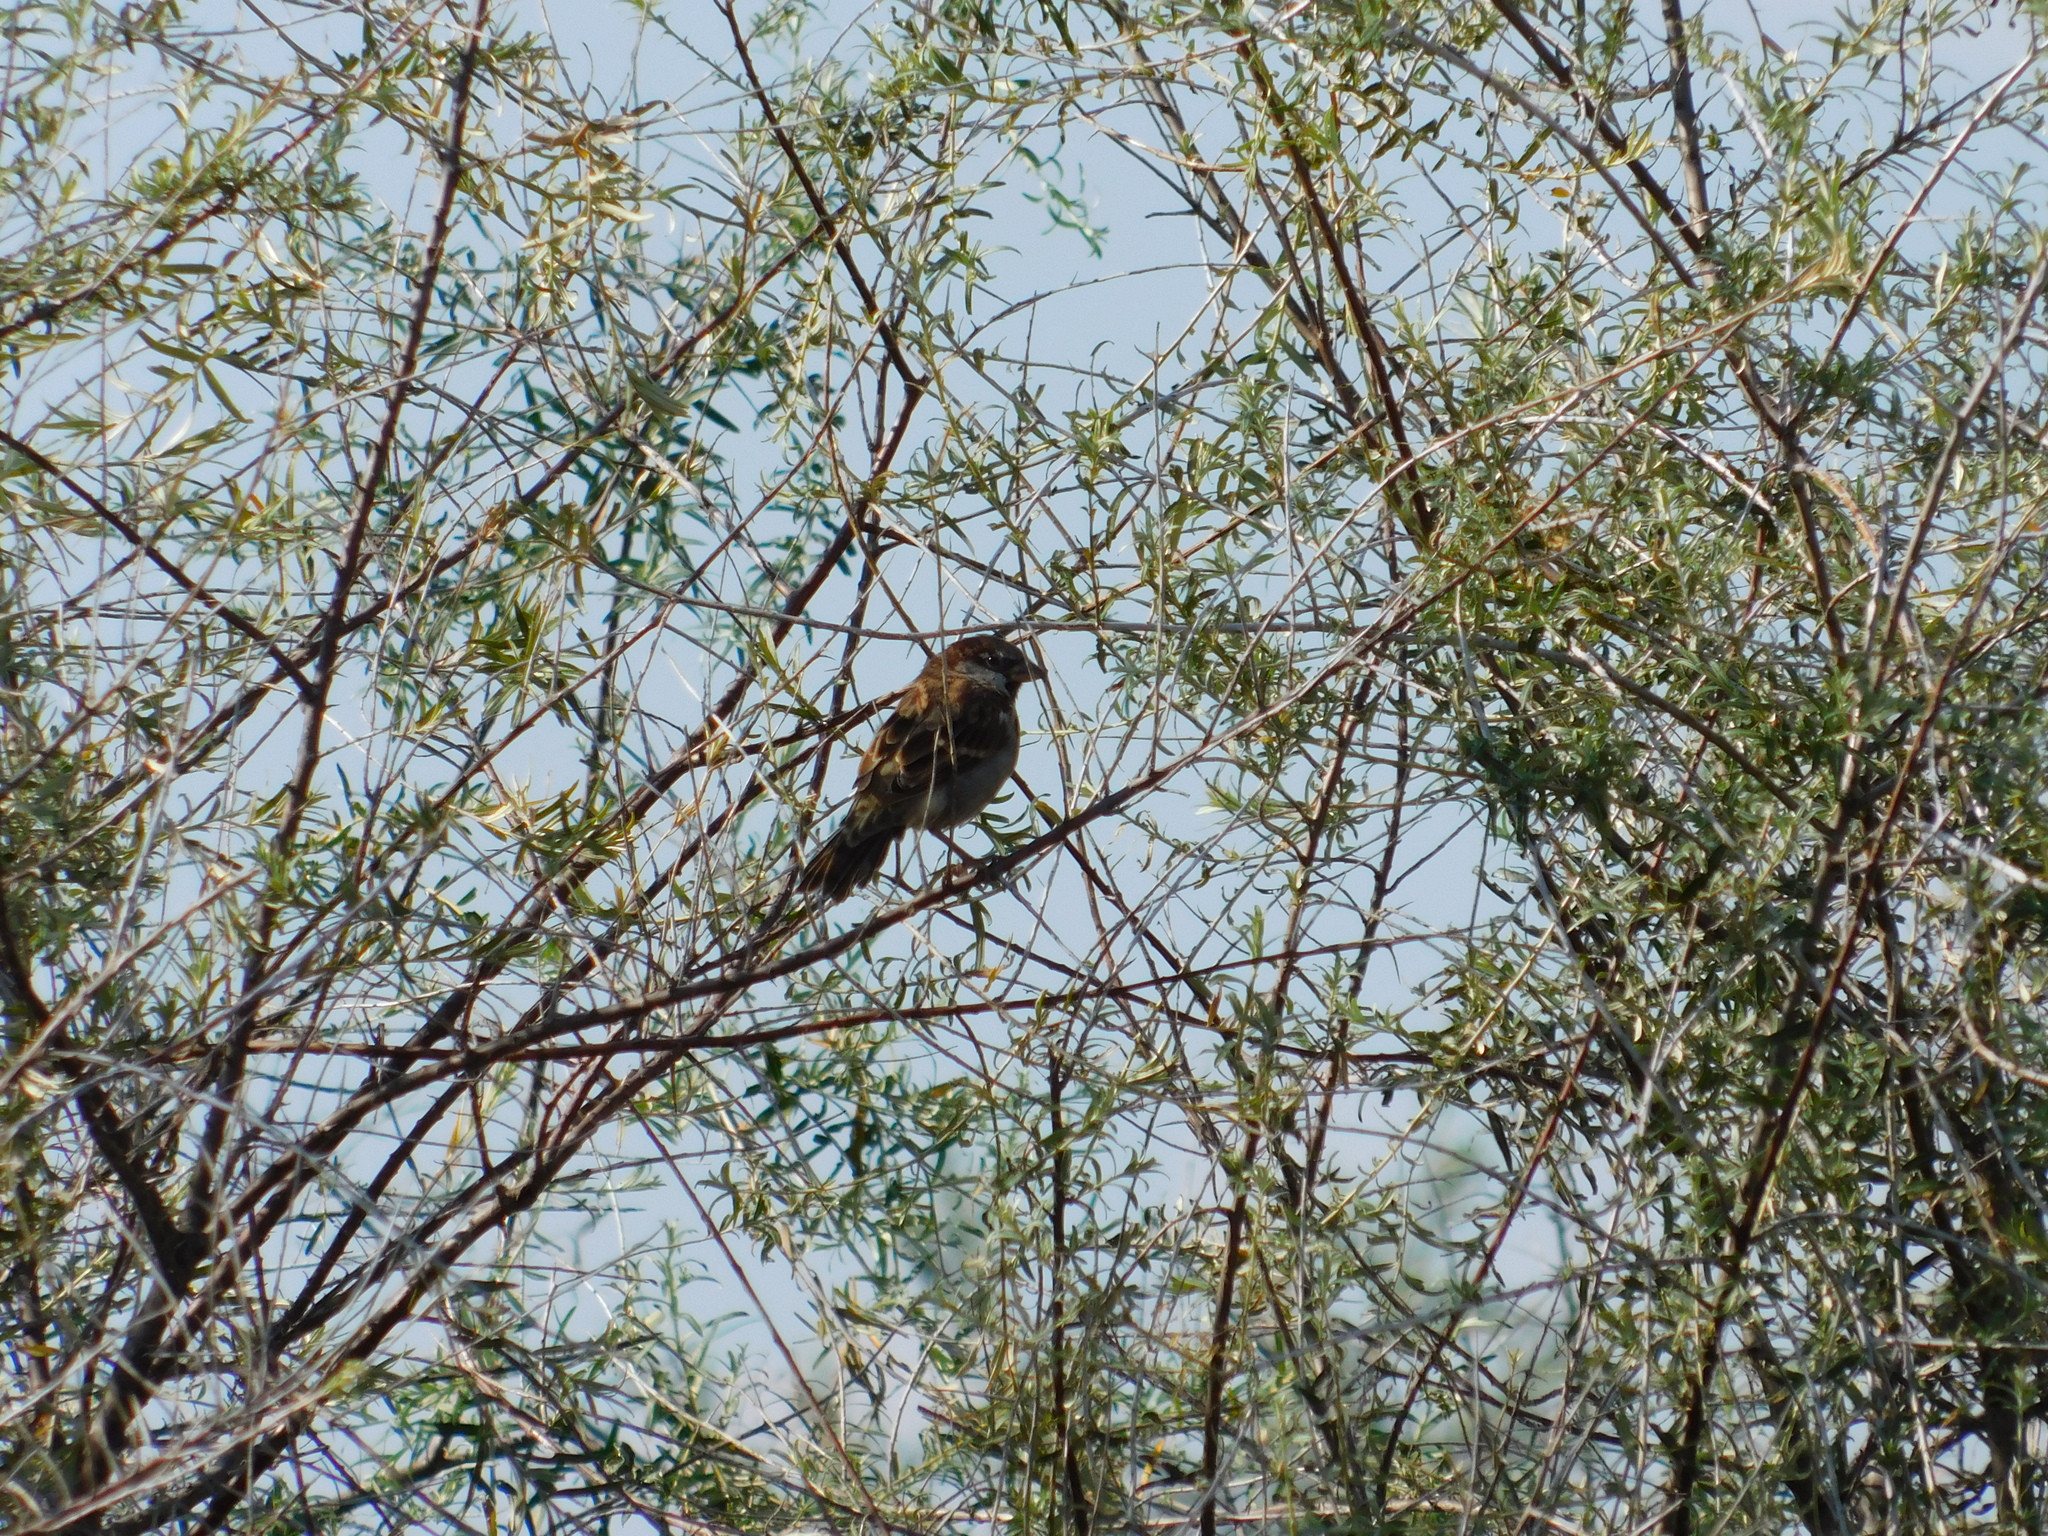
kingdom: Animalia
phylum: Chordata
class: Aves
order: Passeriformes
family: Passeridae
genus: Passer
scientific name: Passer domesticus
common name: House sparrow
